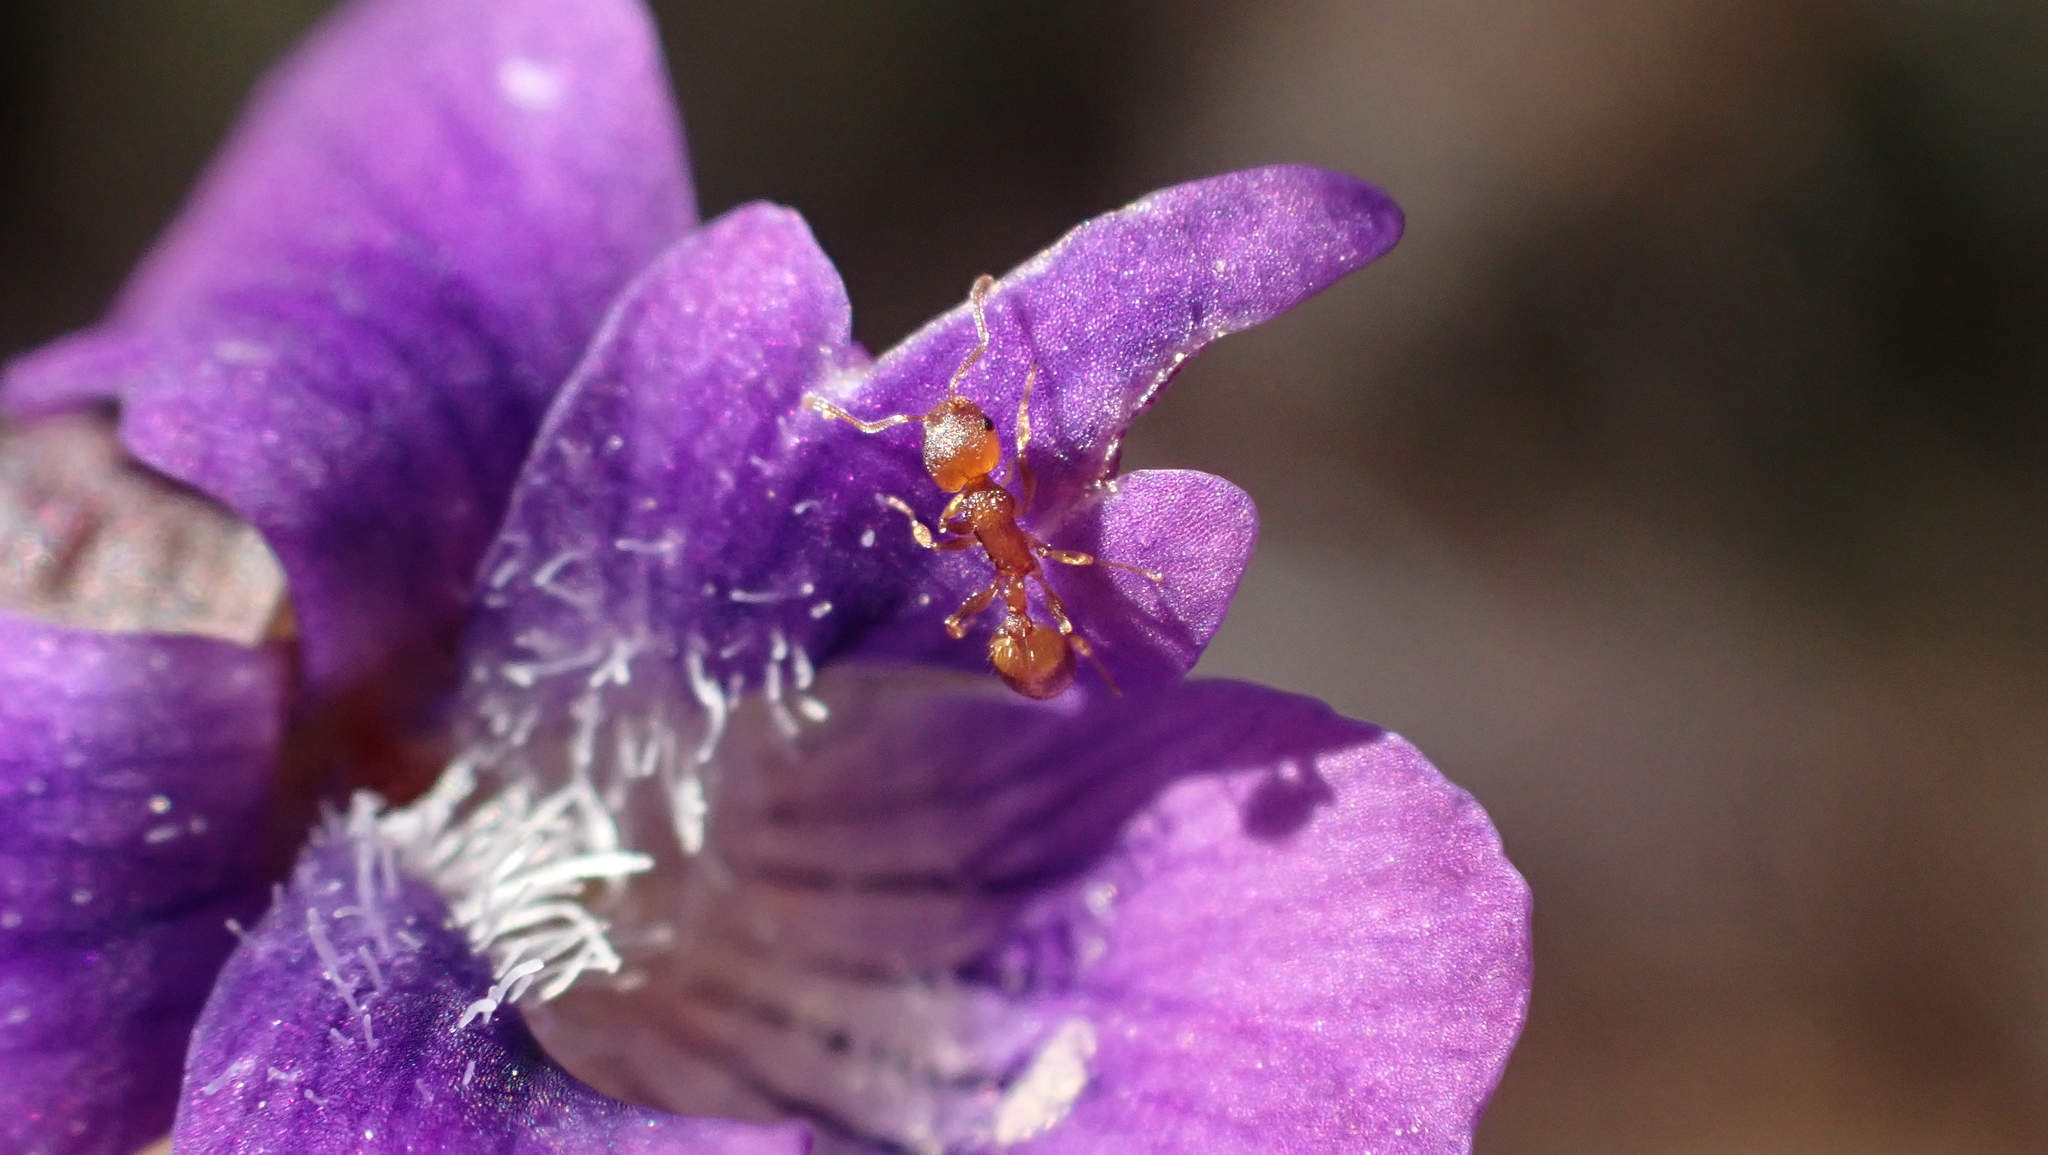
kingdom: Animalia
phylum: Arthropoda
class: Insecta
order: Hymenoptera
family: Formicidae
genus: Temnothorax
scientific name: Temnothorax curvispinosus
